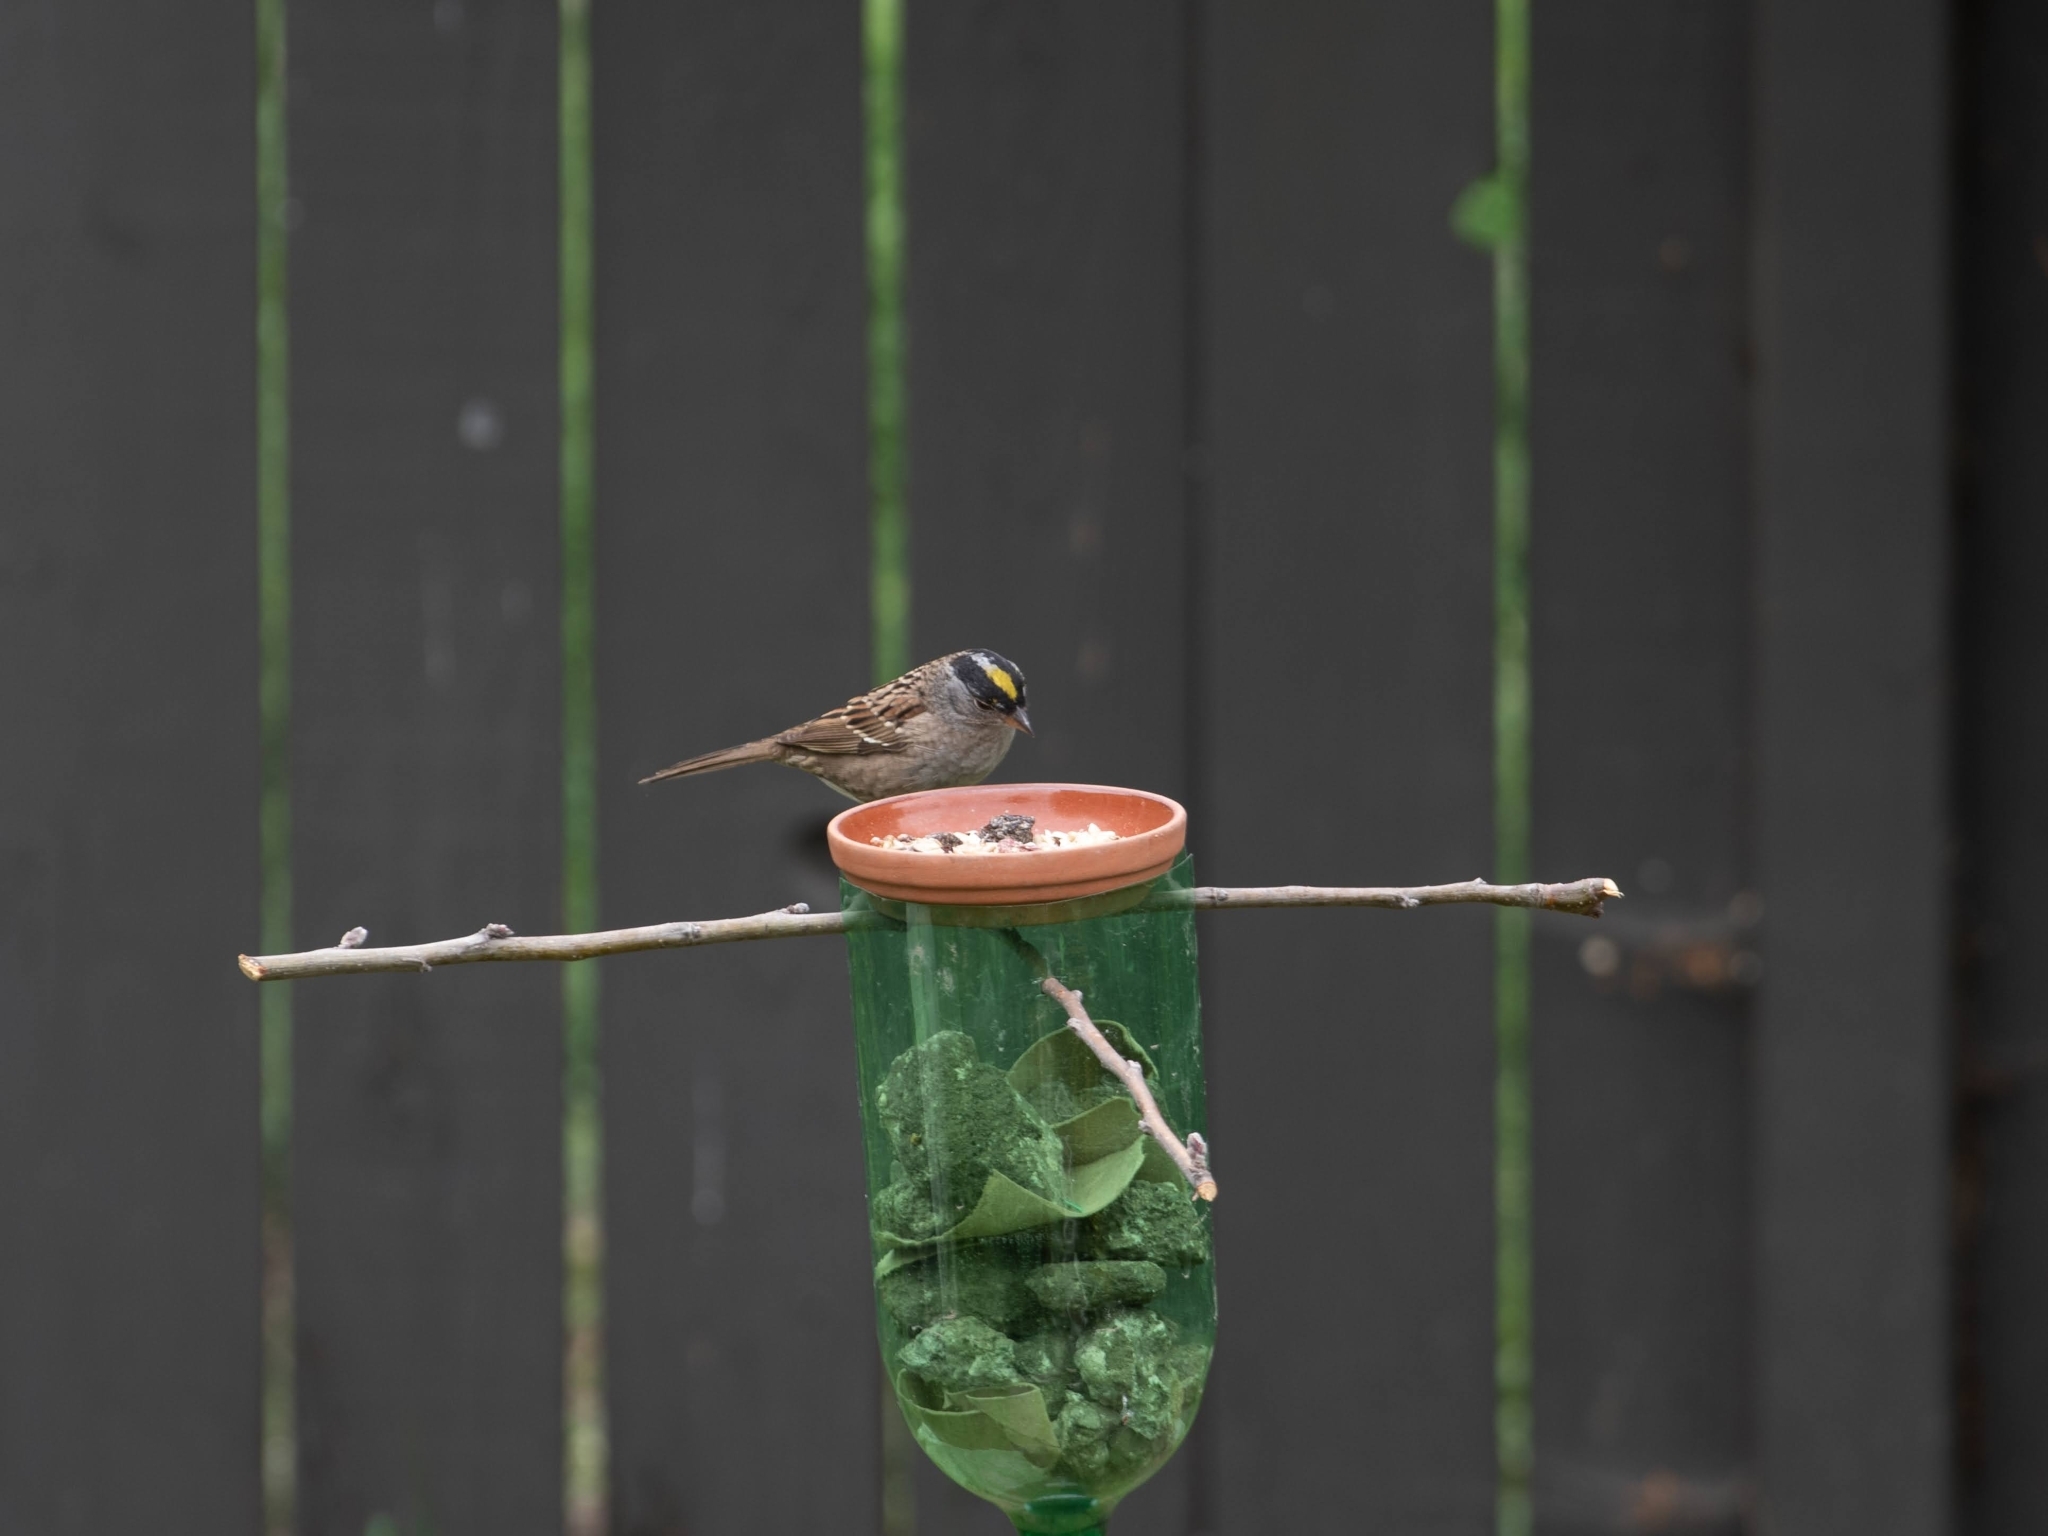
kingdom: Animalia
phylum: Chordata
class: Aves
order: Passeriformes
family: Passerellidae
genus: Zonotrichia
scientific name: Zonotrichia atricapilla
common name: Golden-crowned sparrow
